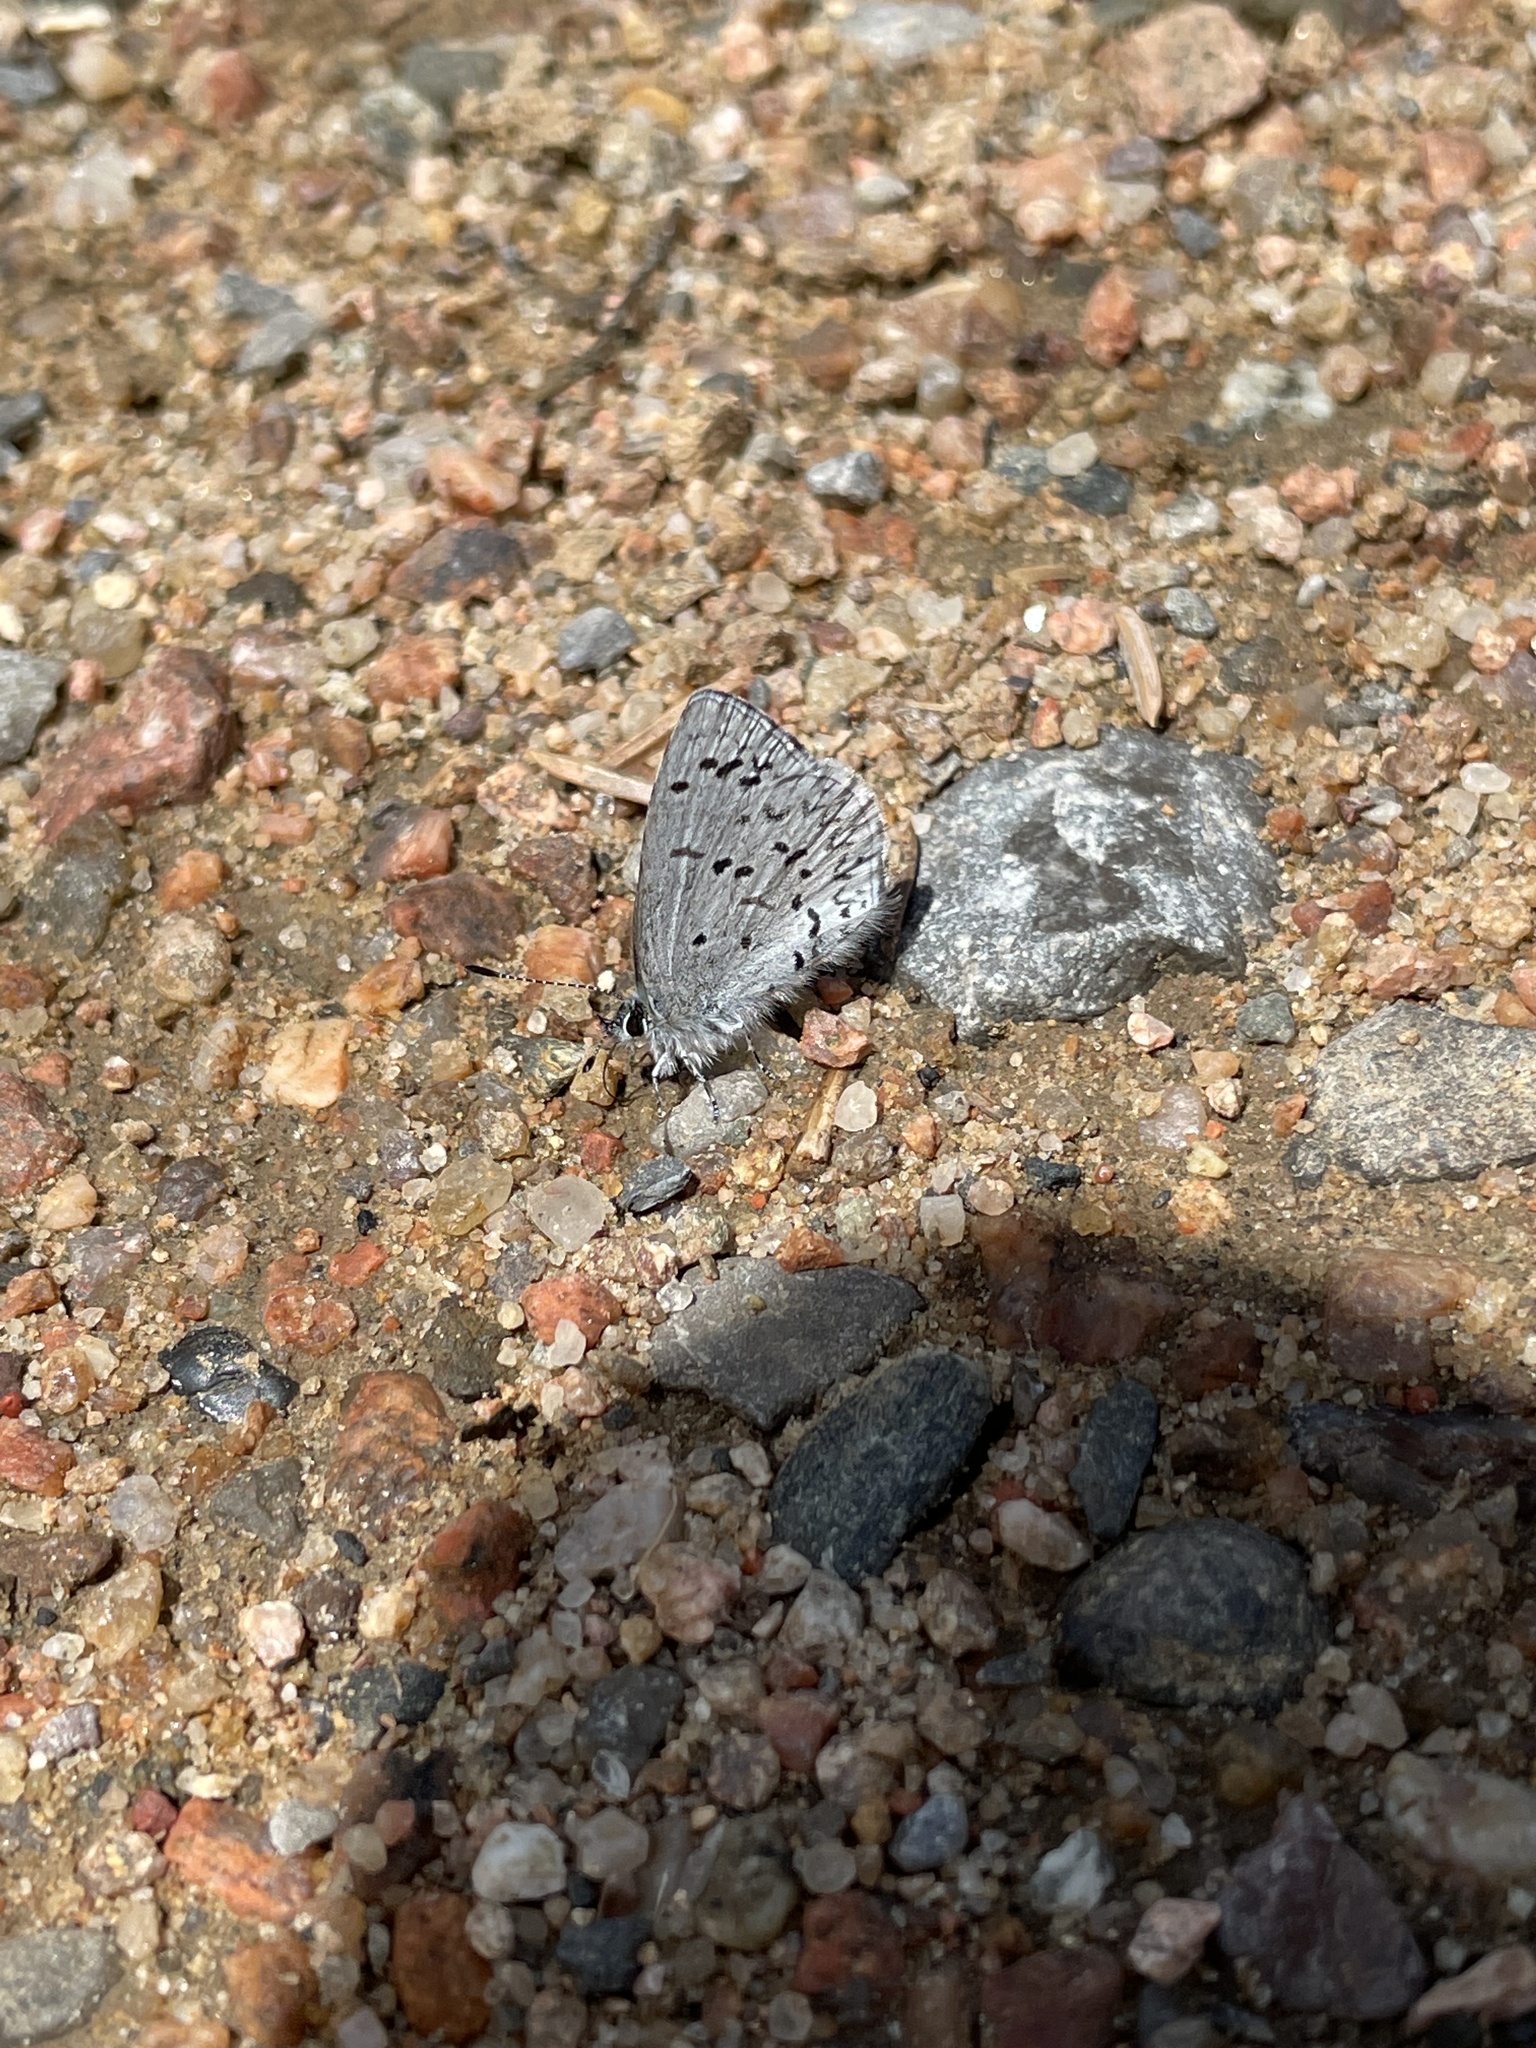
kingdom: Animalia
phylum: Arthropoda
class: Insecta
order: Lepidoptera
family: Lycaenidae
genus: Celastrina
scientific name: Celastrina lucia
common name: Lucia azure
